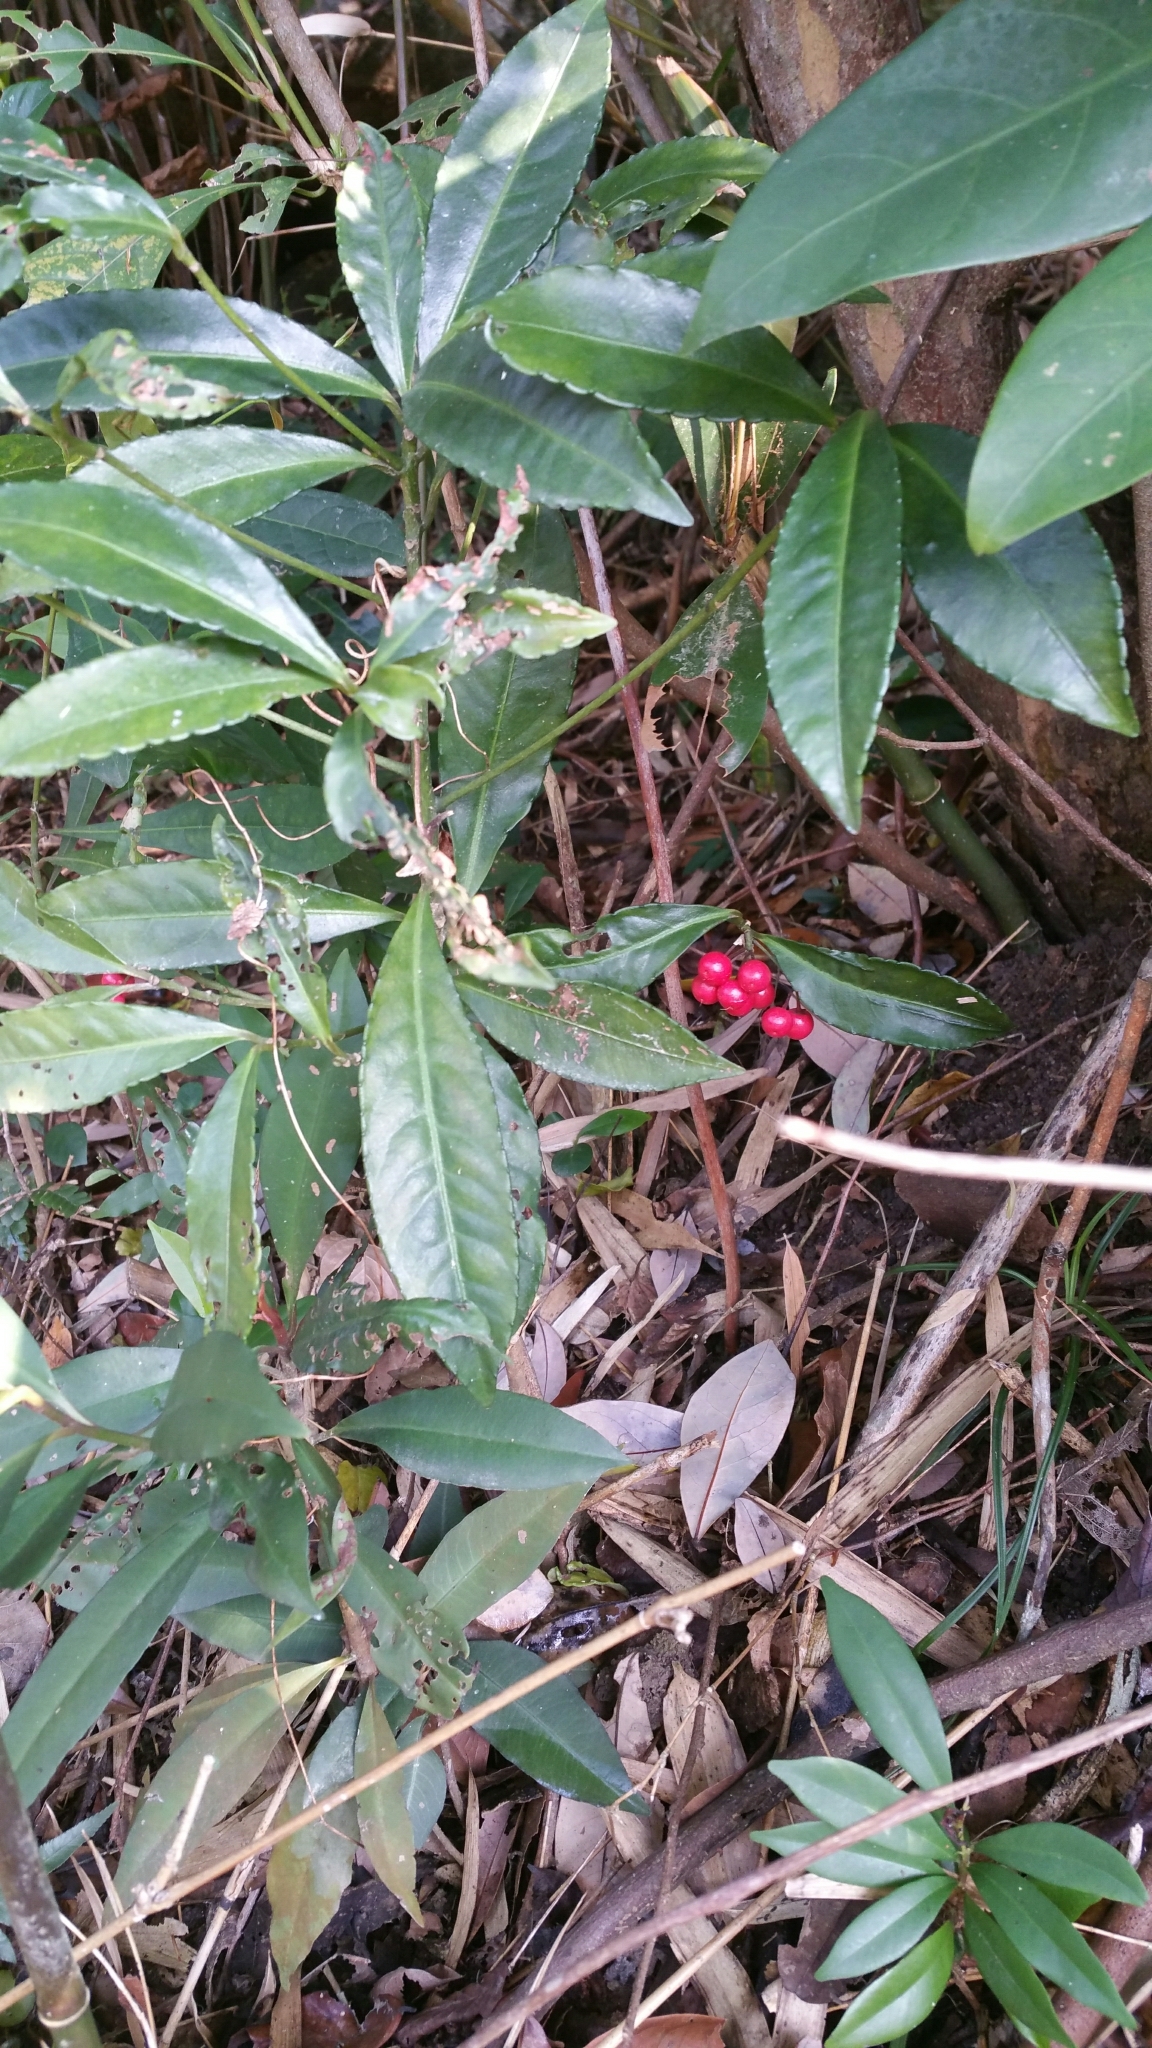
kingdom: Plantae
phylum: Tracheophyta
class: Magnoliopsida
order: Ericales
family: Primulaceae
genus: Ardisia
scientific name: Ardisia crenata
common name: Hen's eyes
